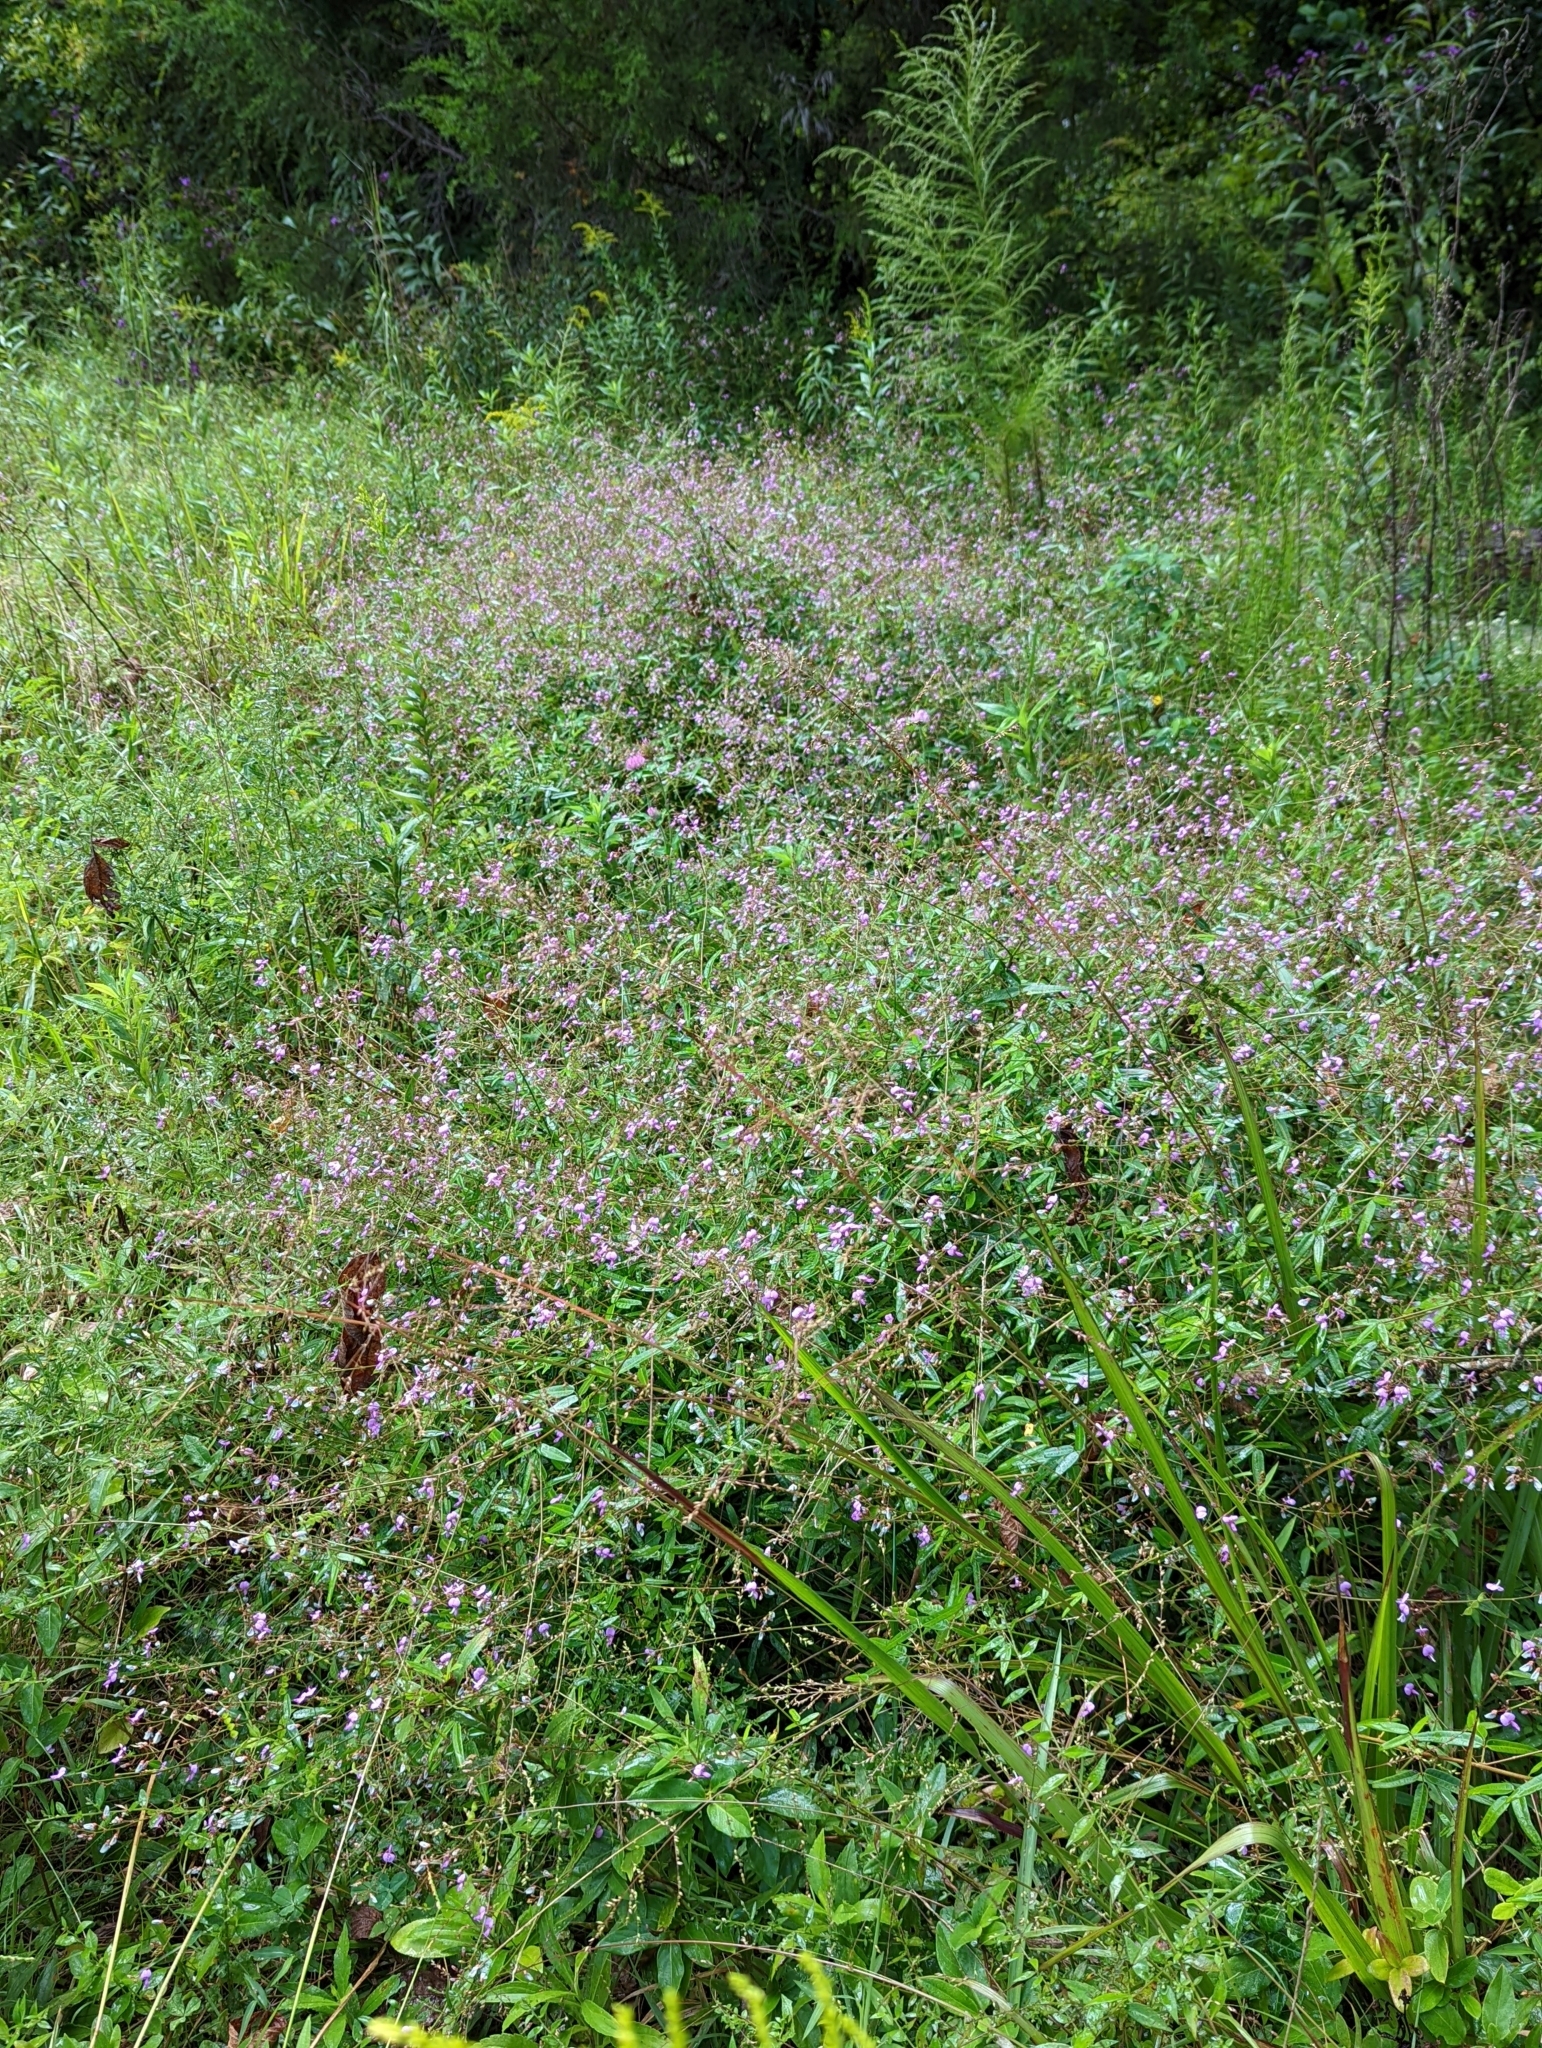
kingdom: Plantae
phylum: Tracheophyta
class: Magnoliopsida
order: Fabales
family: Fabaceae
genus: Desmodium
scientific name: Desmodium paniculatum
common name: Panicled tick-clover
